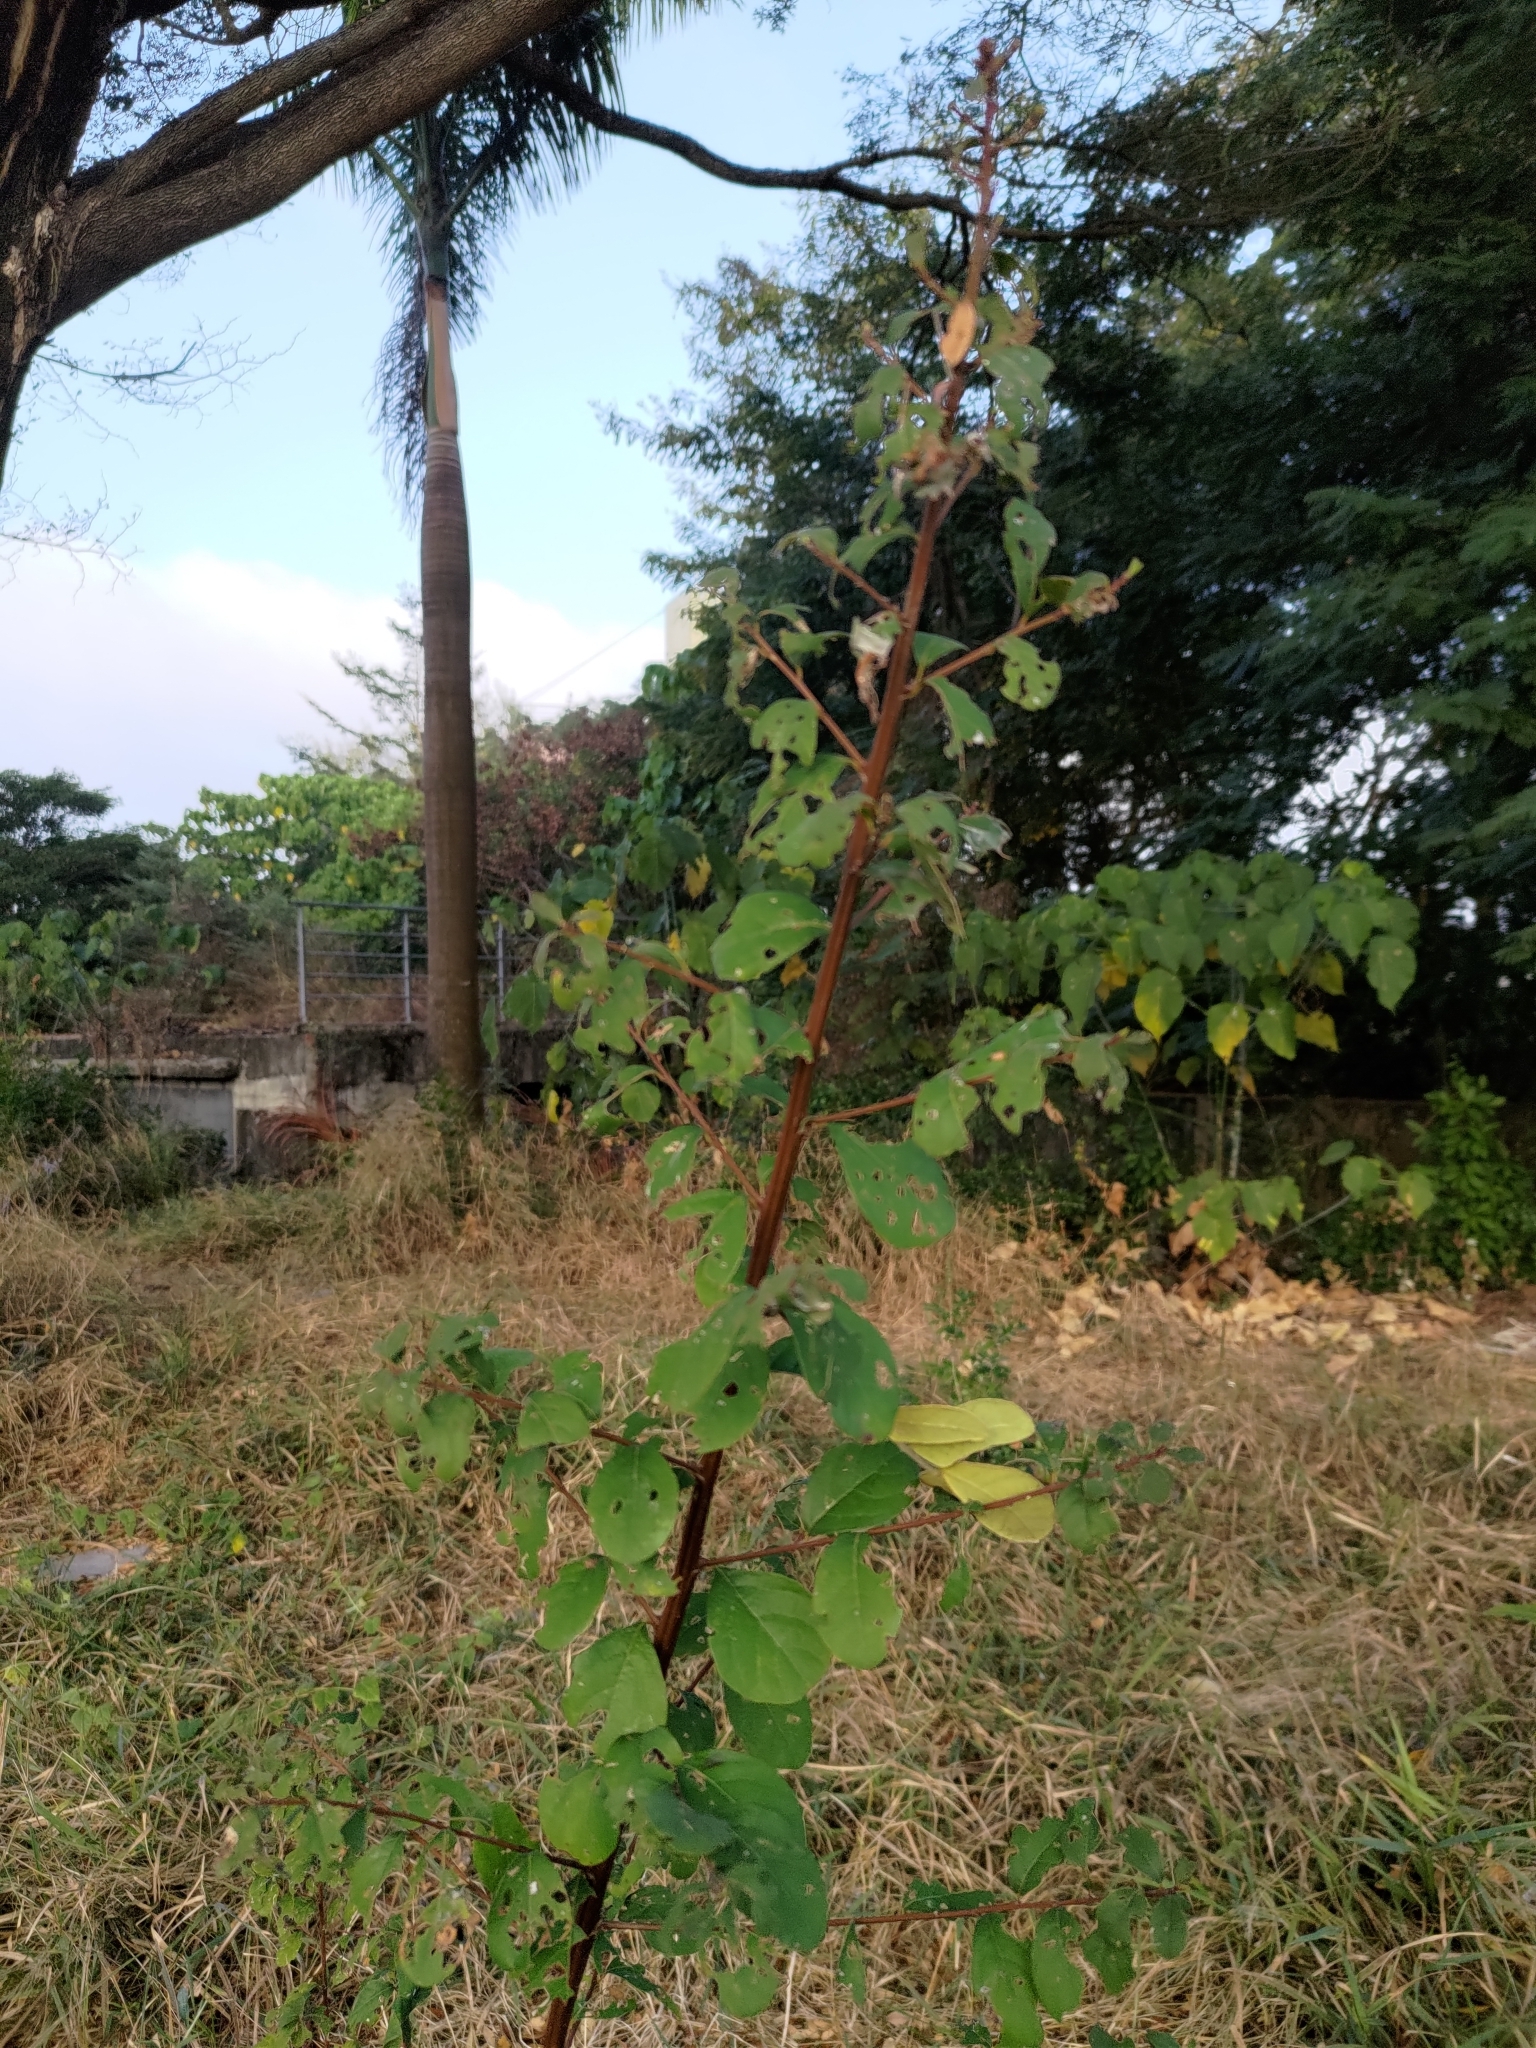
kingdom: Plantae
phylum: Tracheophyta
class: Magnoliopsida
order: Malpighiales
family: Phyllanthaceae
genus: Flueggea
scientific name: Flueggea virosa
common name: Common bushweed
